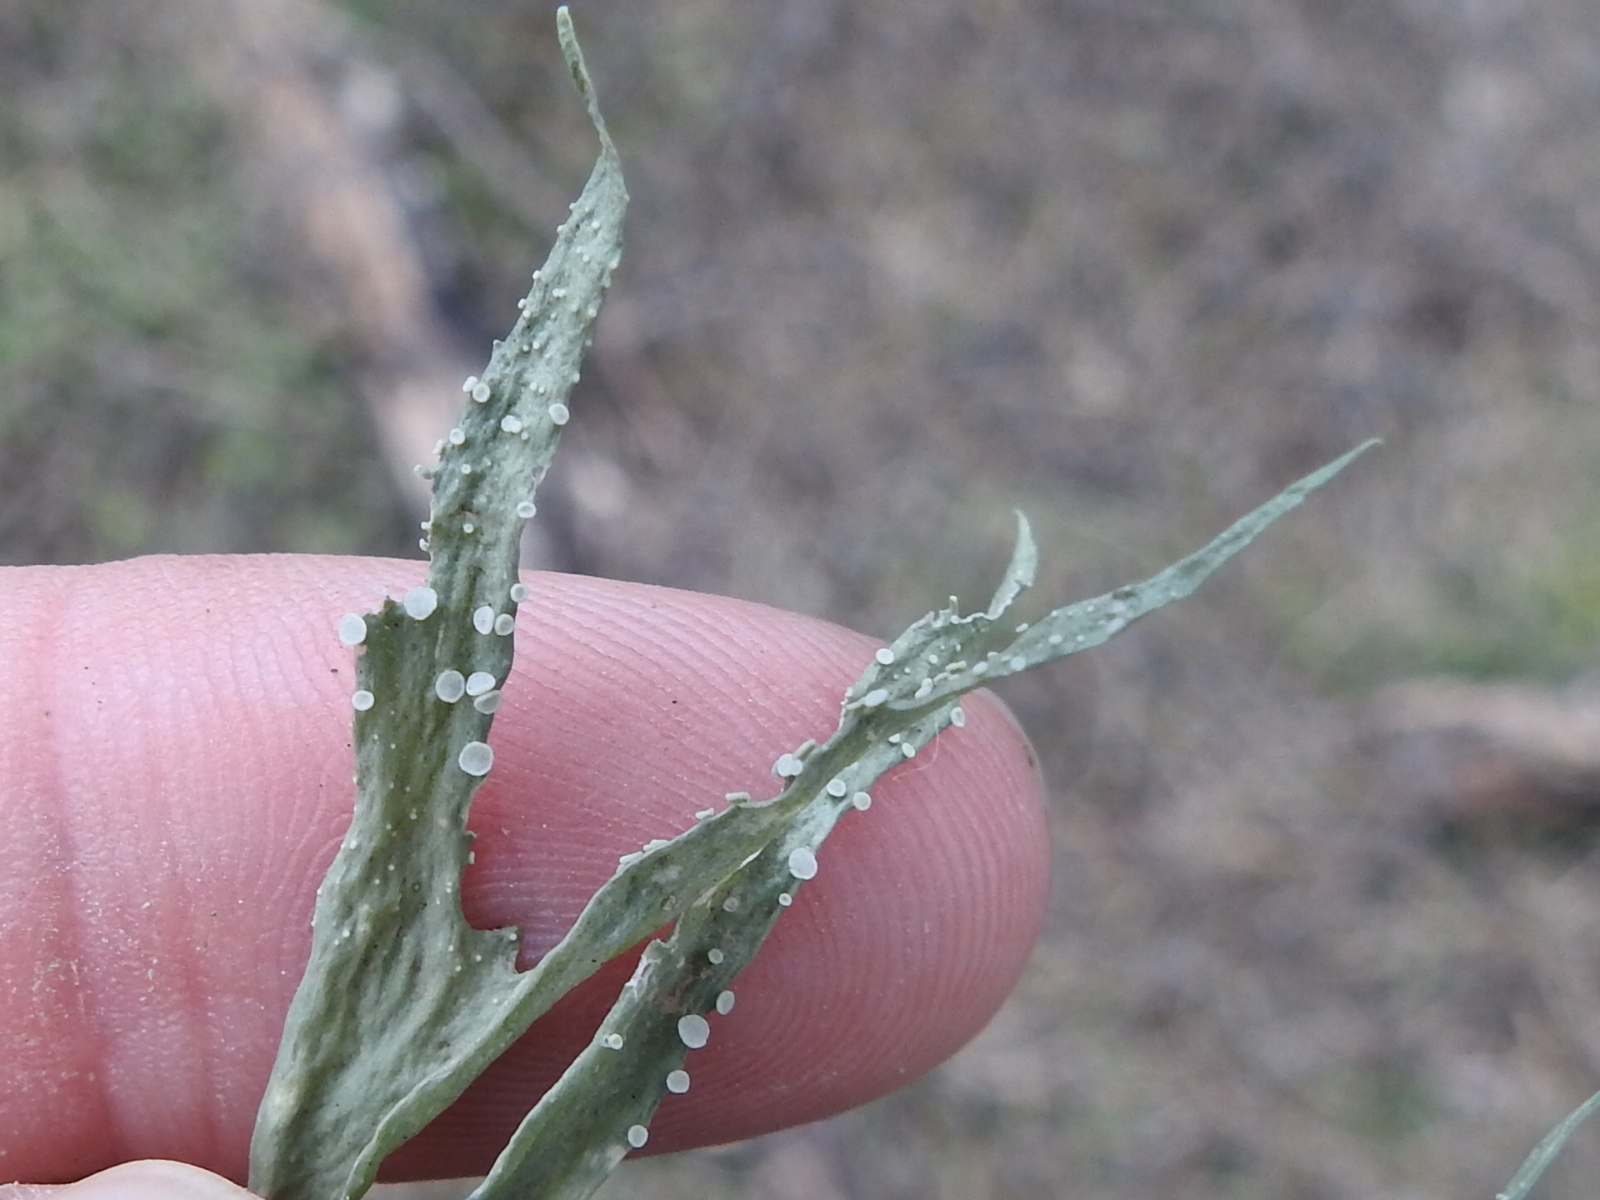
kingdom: Fungi
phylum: Ascomycota
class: Lecanoromycetes
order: Lecanorales
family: Ramalinaceae
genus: Ramalina
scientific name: Ramalina celastri
